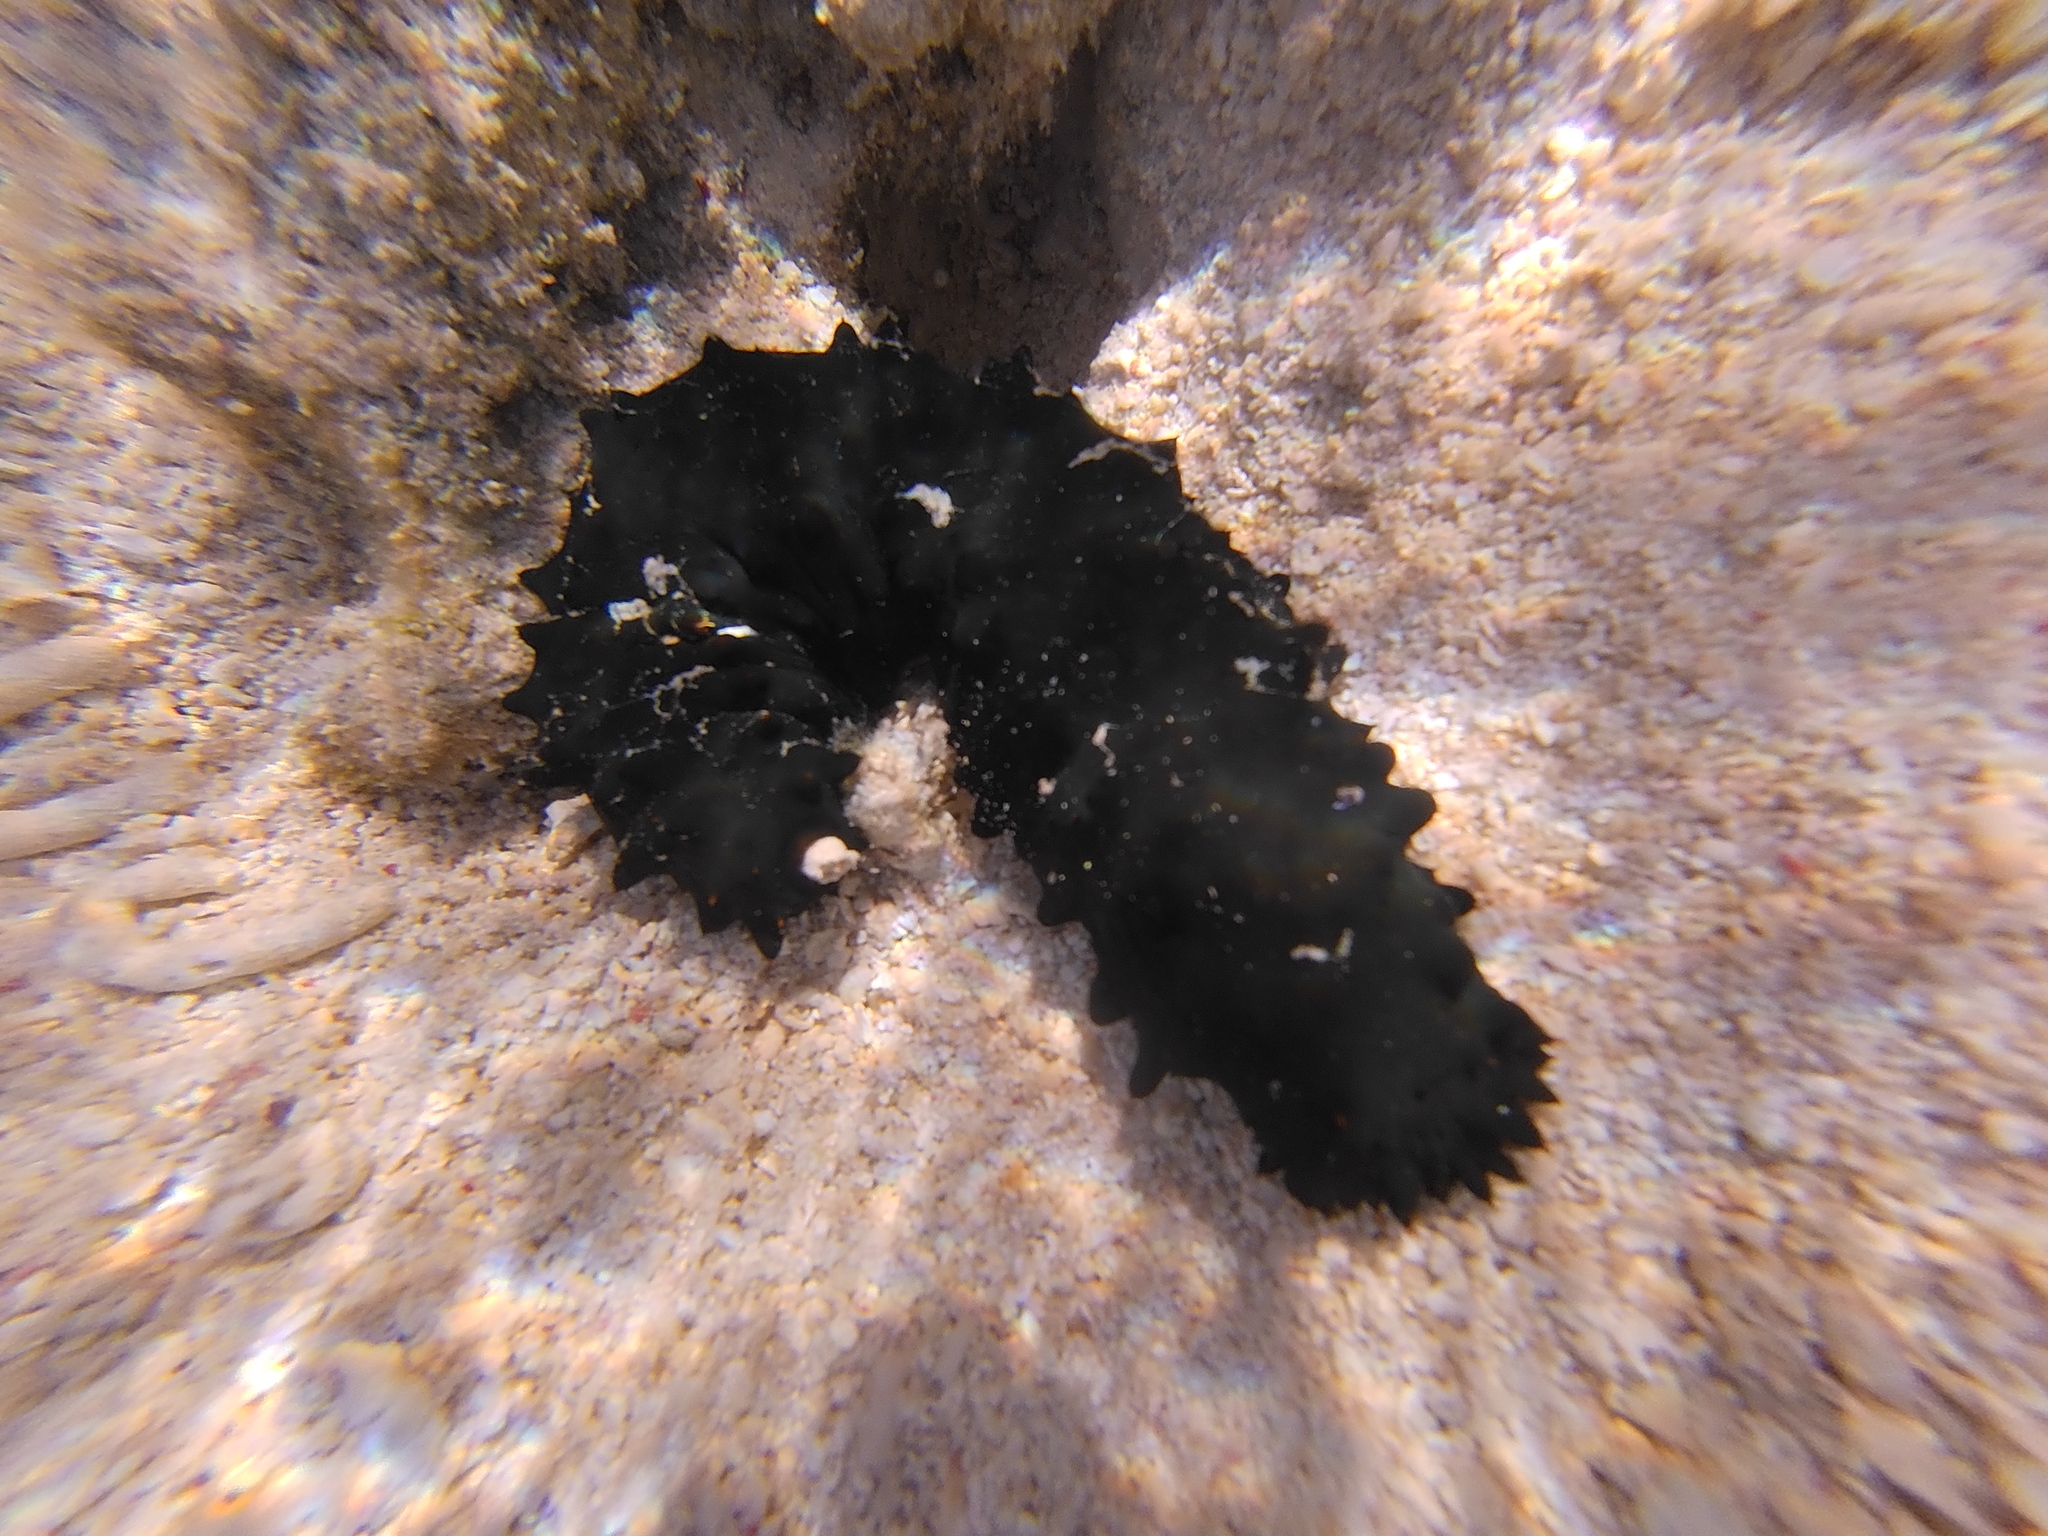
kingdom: Animalia
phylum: Echinodermata
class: Holothuroidea
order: Synallactida
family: Stichopodidae
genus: Stichopus
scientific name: Stichopus chloronotus
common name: Greenfish
